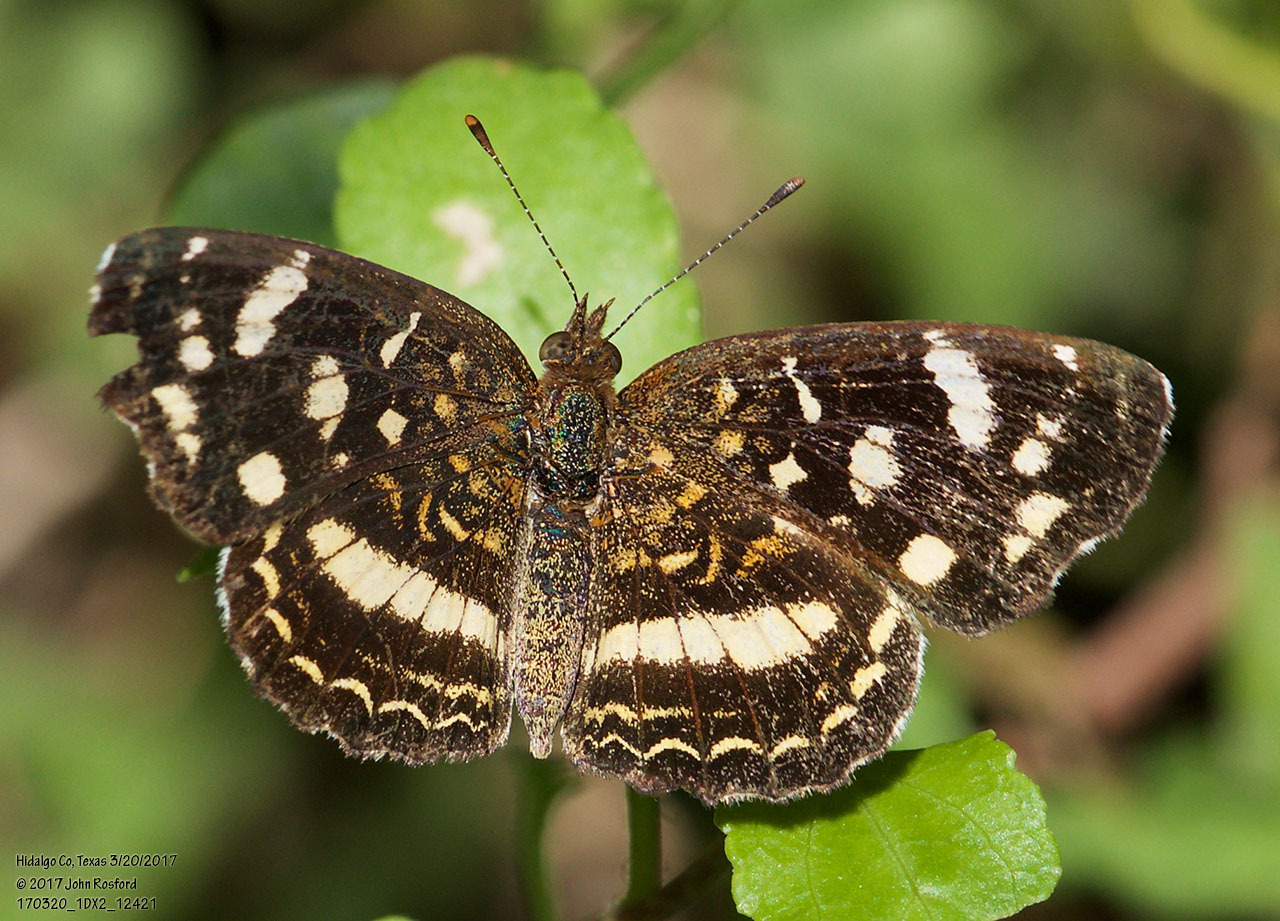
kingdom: Animalia
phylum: Arthropoda
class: Insecta
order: Lepidoptera
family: Nymphalidae
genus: Anthanassa
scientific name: Anthanassa tulcis
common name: Pale-banded crescent
